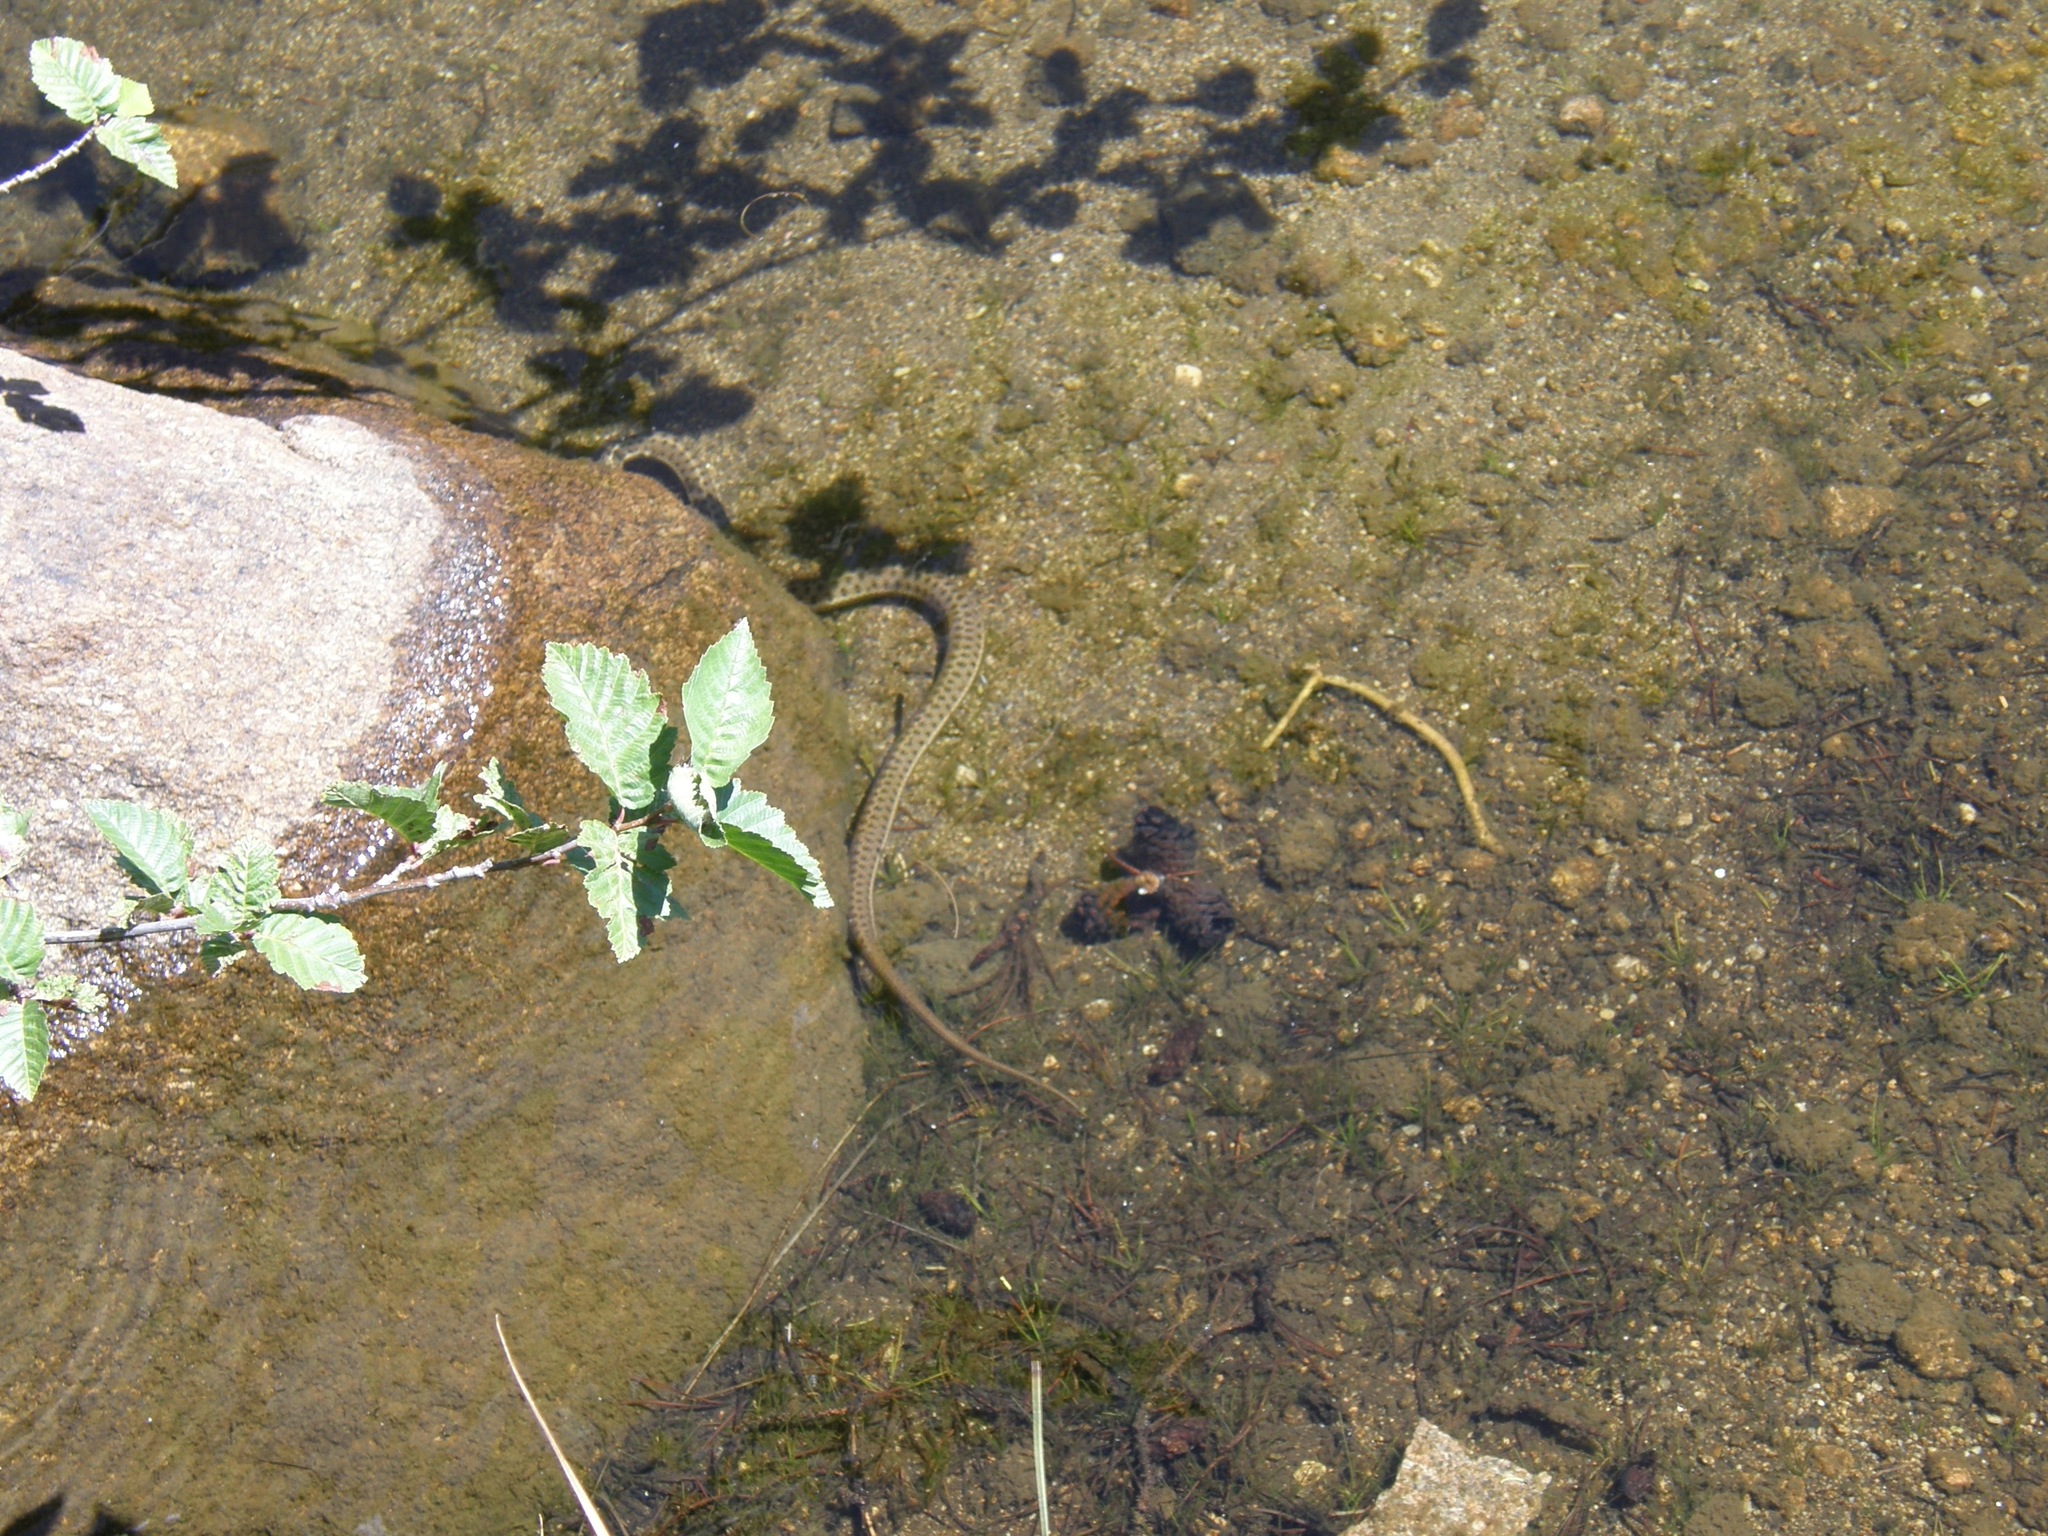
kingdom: Animalia
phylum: Chordata
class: Squamata
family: Colubridae
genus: Thamnophis
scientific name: Thamnophis elegans
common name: Western terrestrial garter snake
